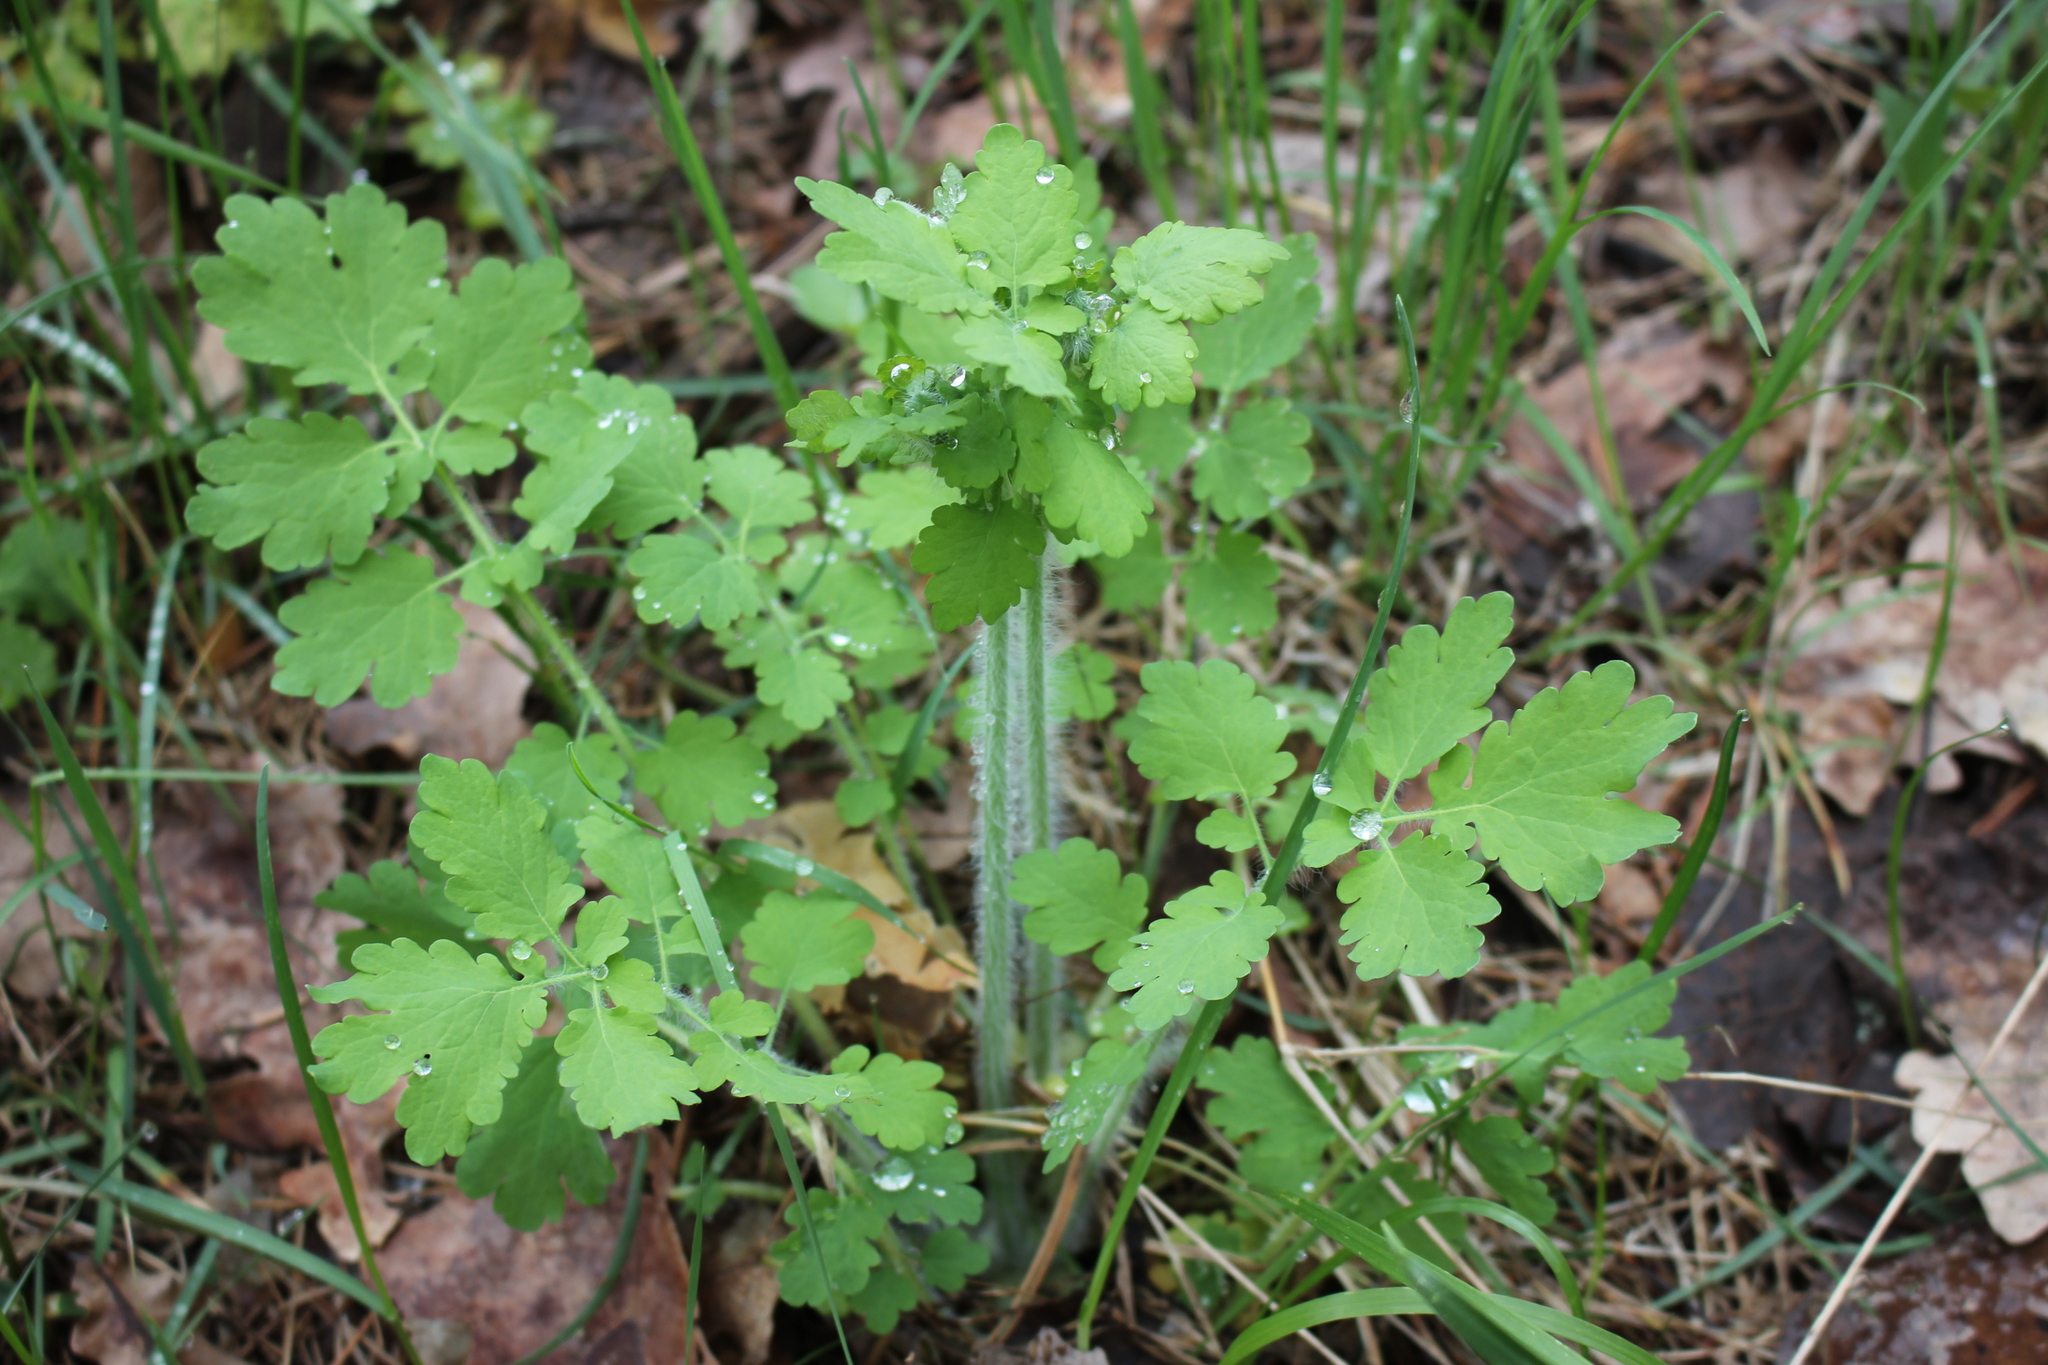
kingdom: Plantae
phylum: Tracheophyta
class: Magnoliopsida
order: Ranunculales
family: Papaveraceae
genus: Chelidonium
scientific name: Chelidonium majus
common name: Greater celandine
